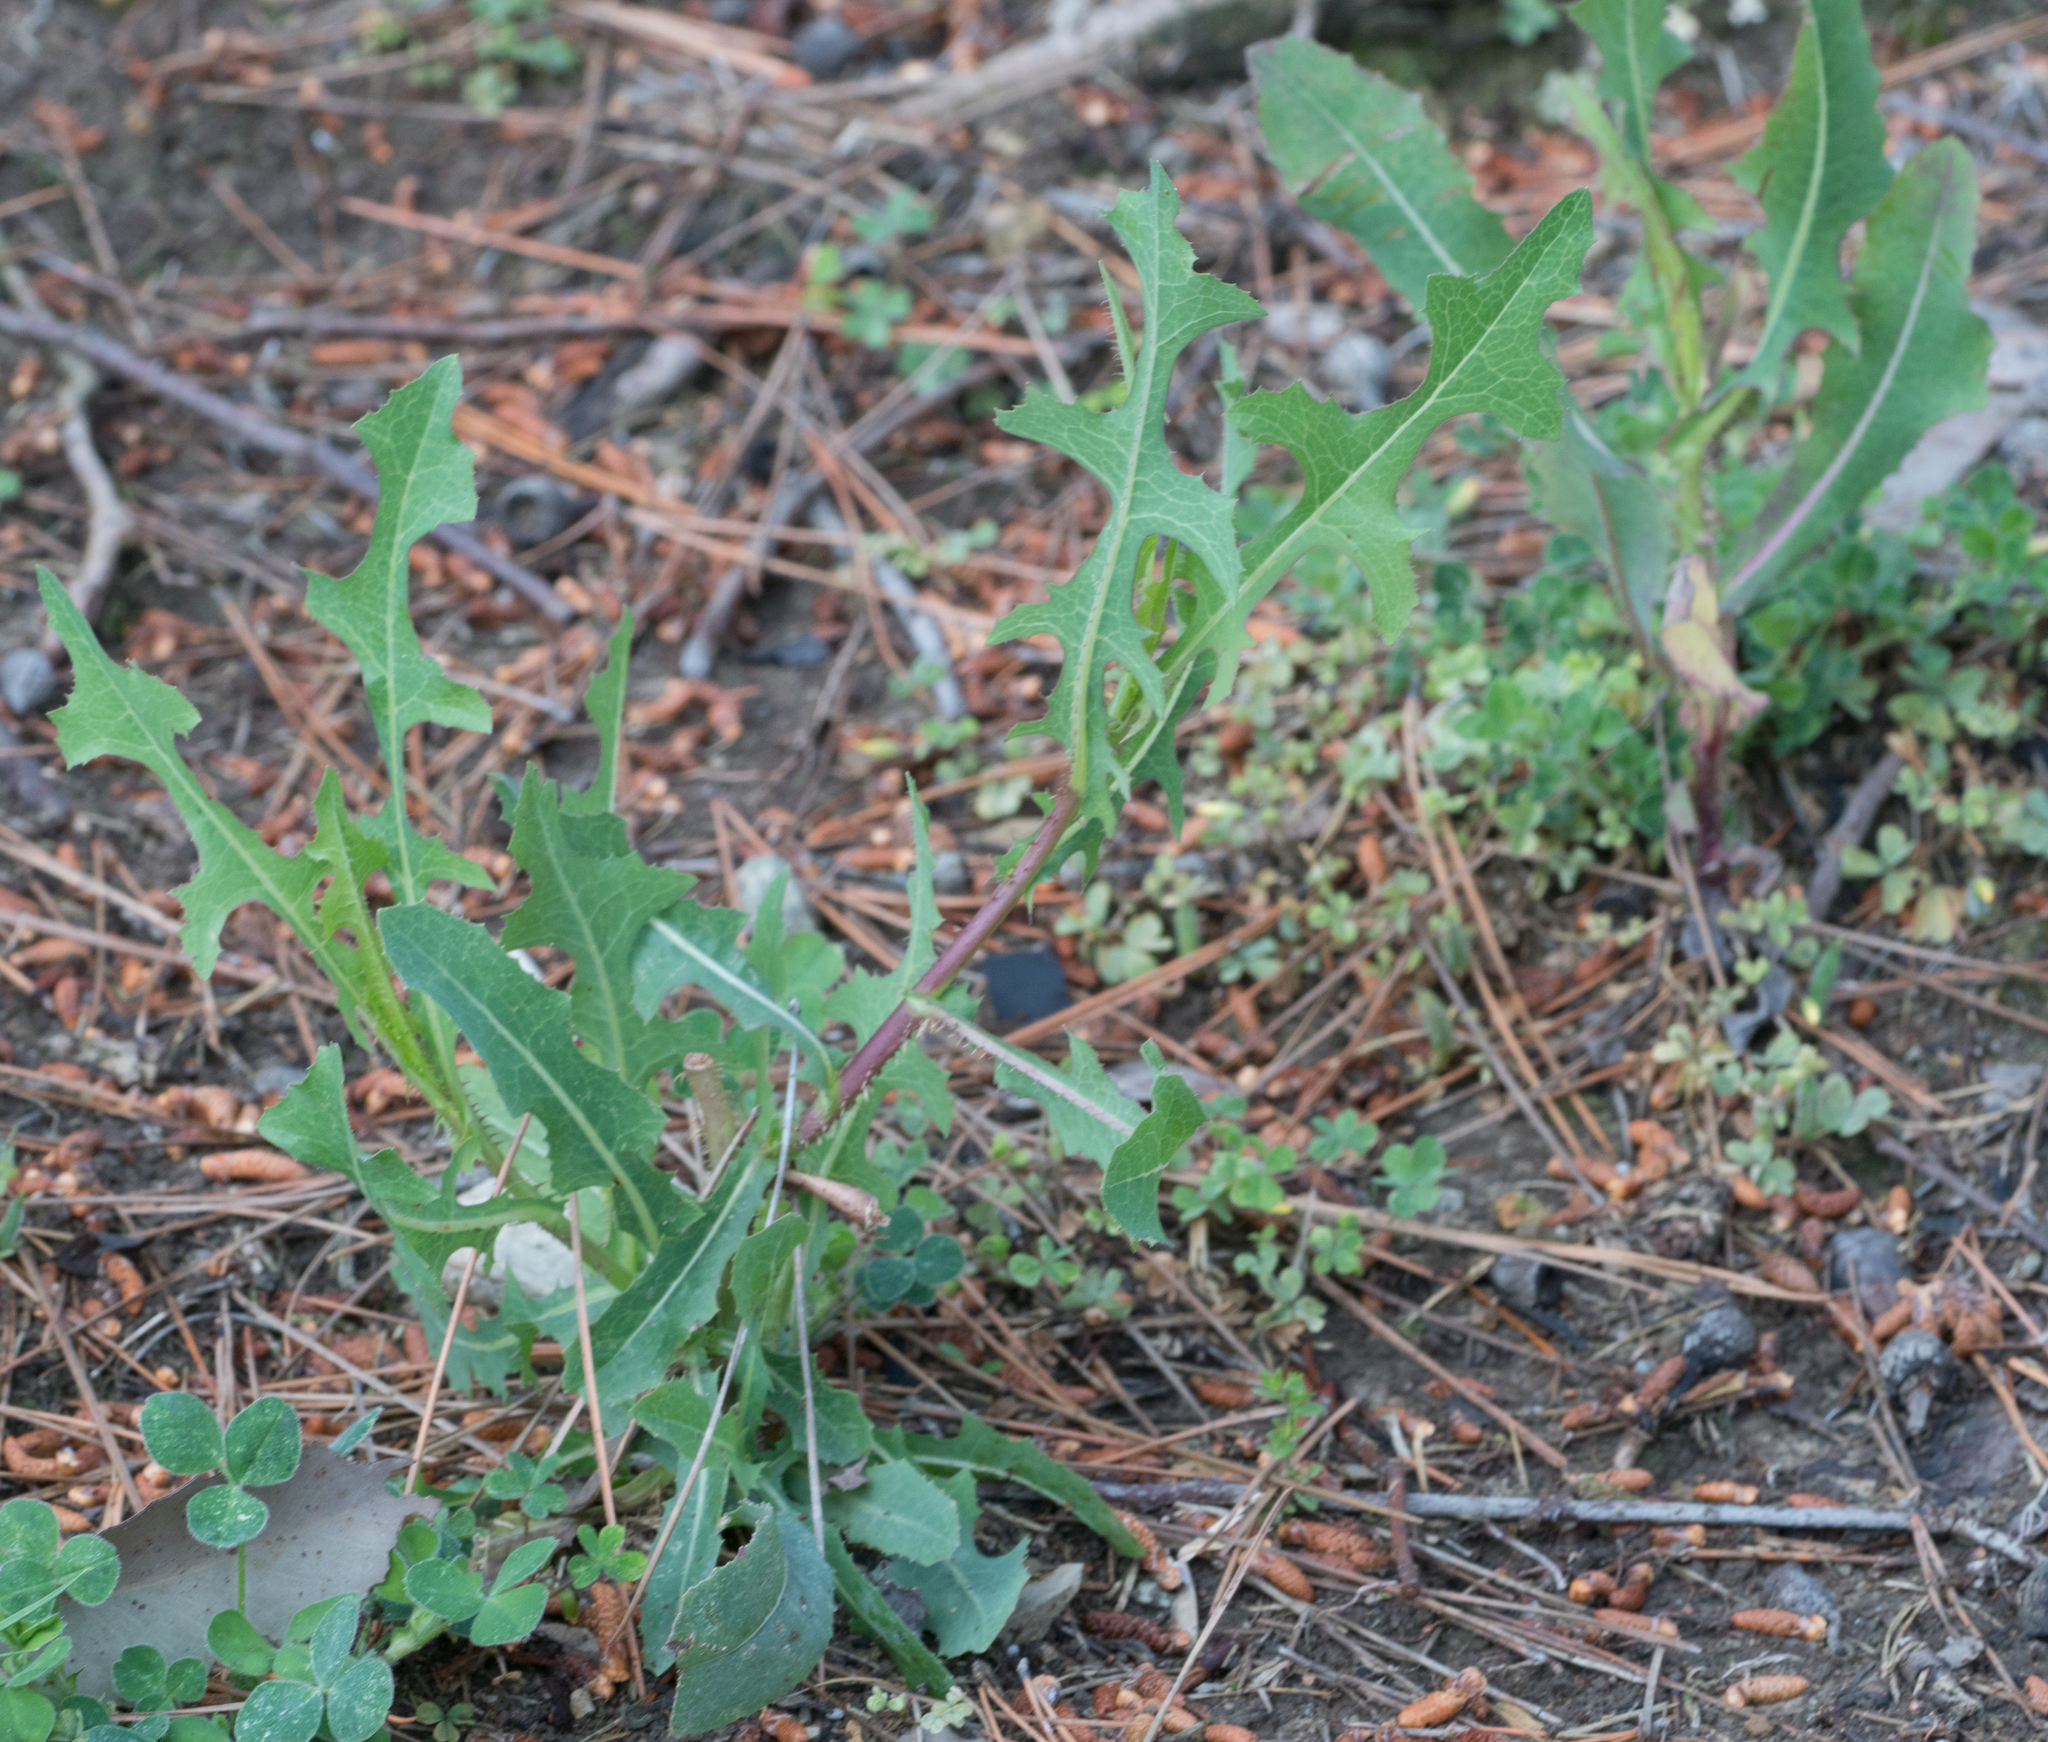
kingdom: Plantae
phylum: Tracheophyta
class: Magnoliopsida
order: Asterales
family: Asteraceae
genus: Lactuca
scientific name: Lactuca serriola
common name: Prickly lettuce
